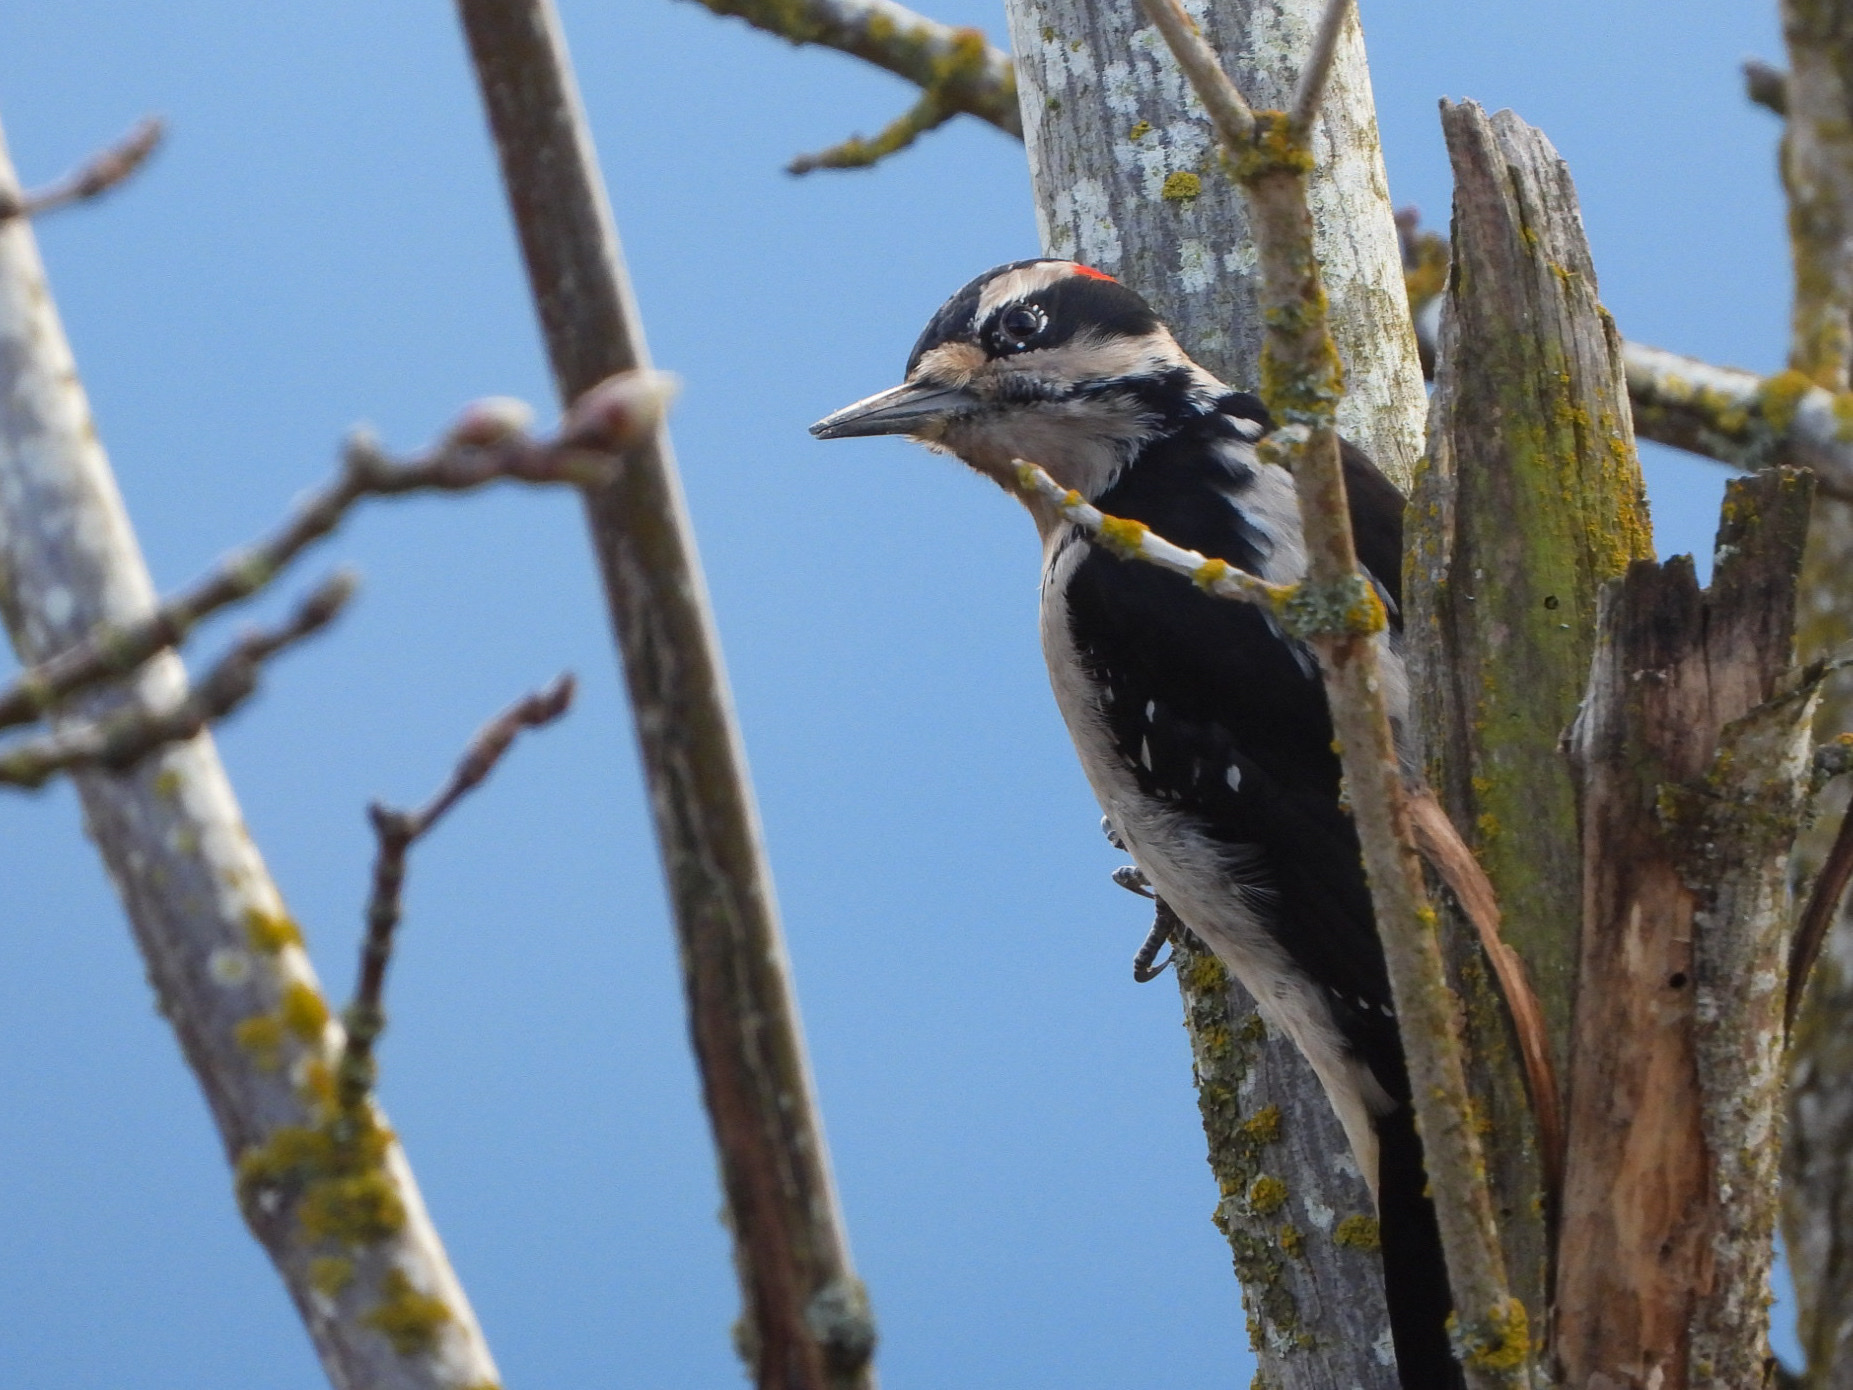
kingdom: Animalia
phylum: Chordata
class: Aves
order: Piciformes
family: Picidae
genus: Leuconotopicus
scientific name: Leuconotopicus villosus
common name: Hairy woodpecker
